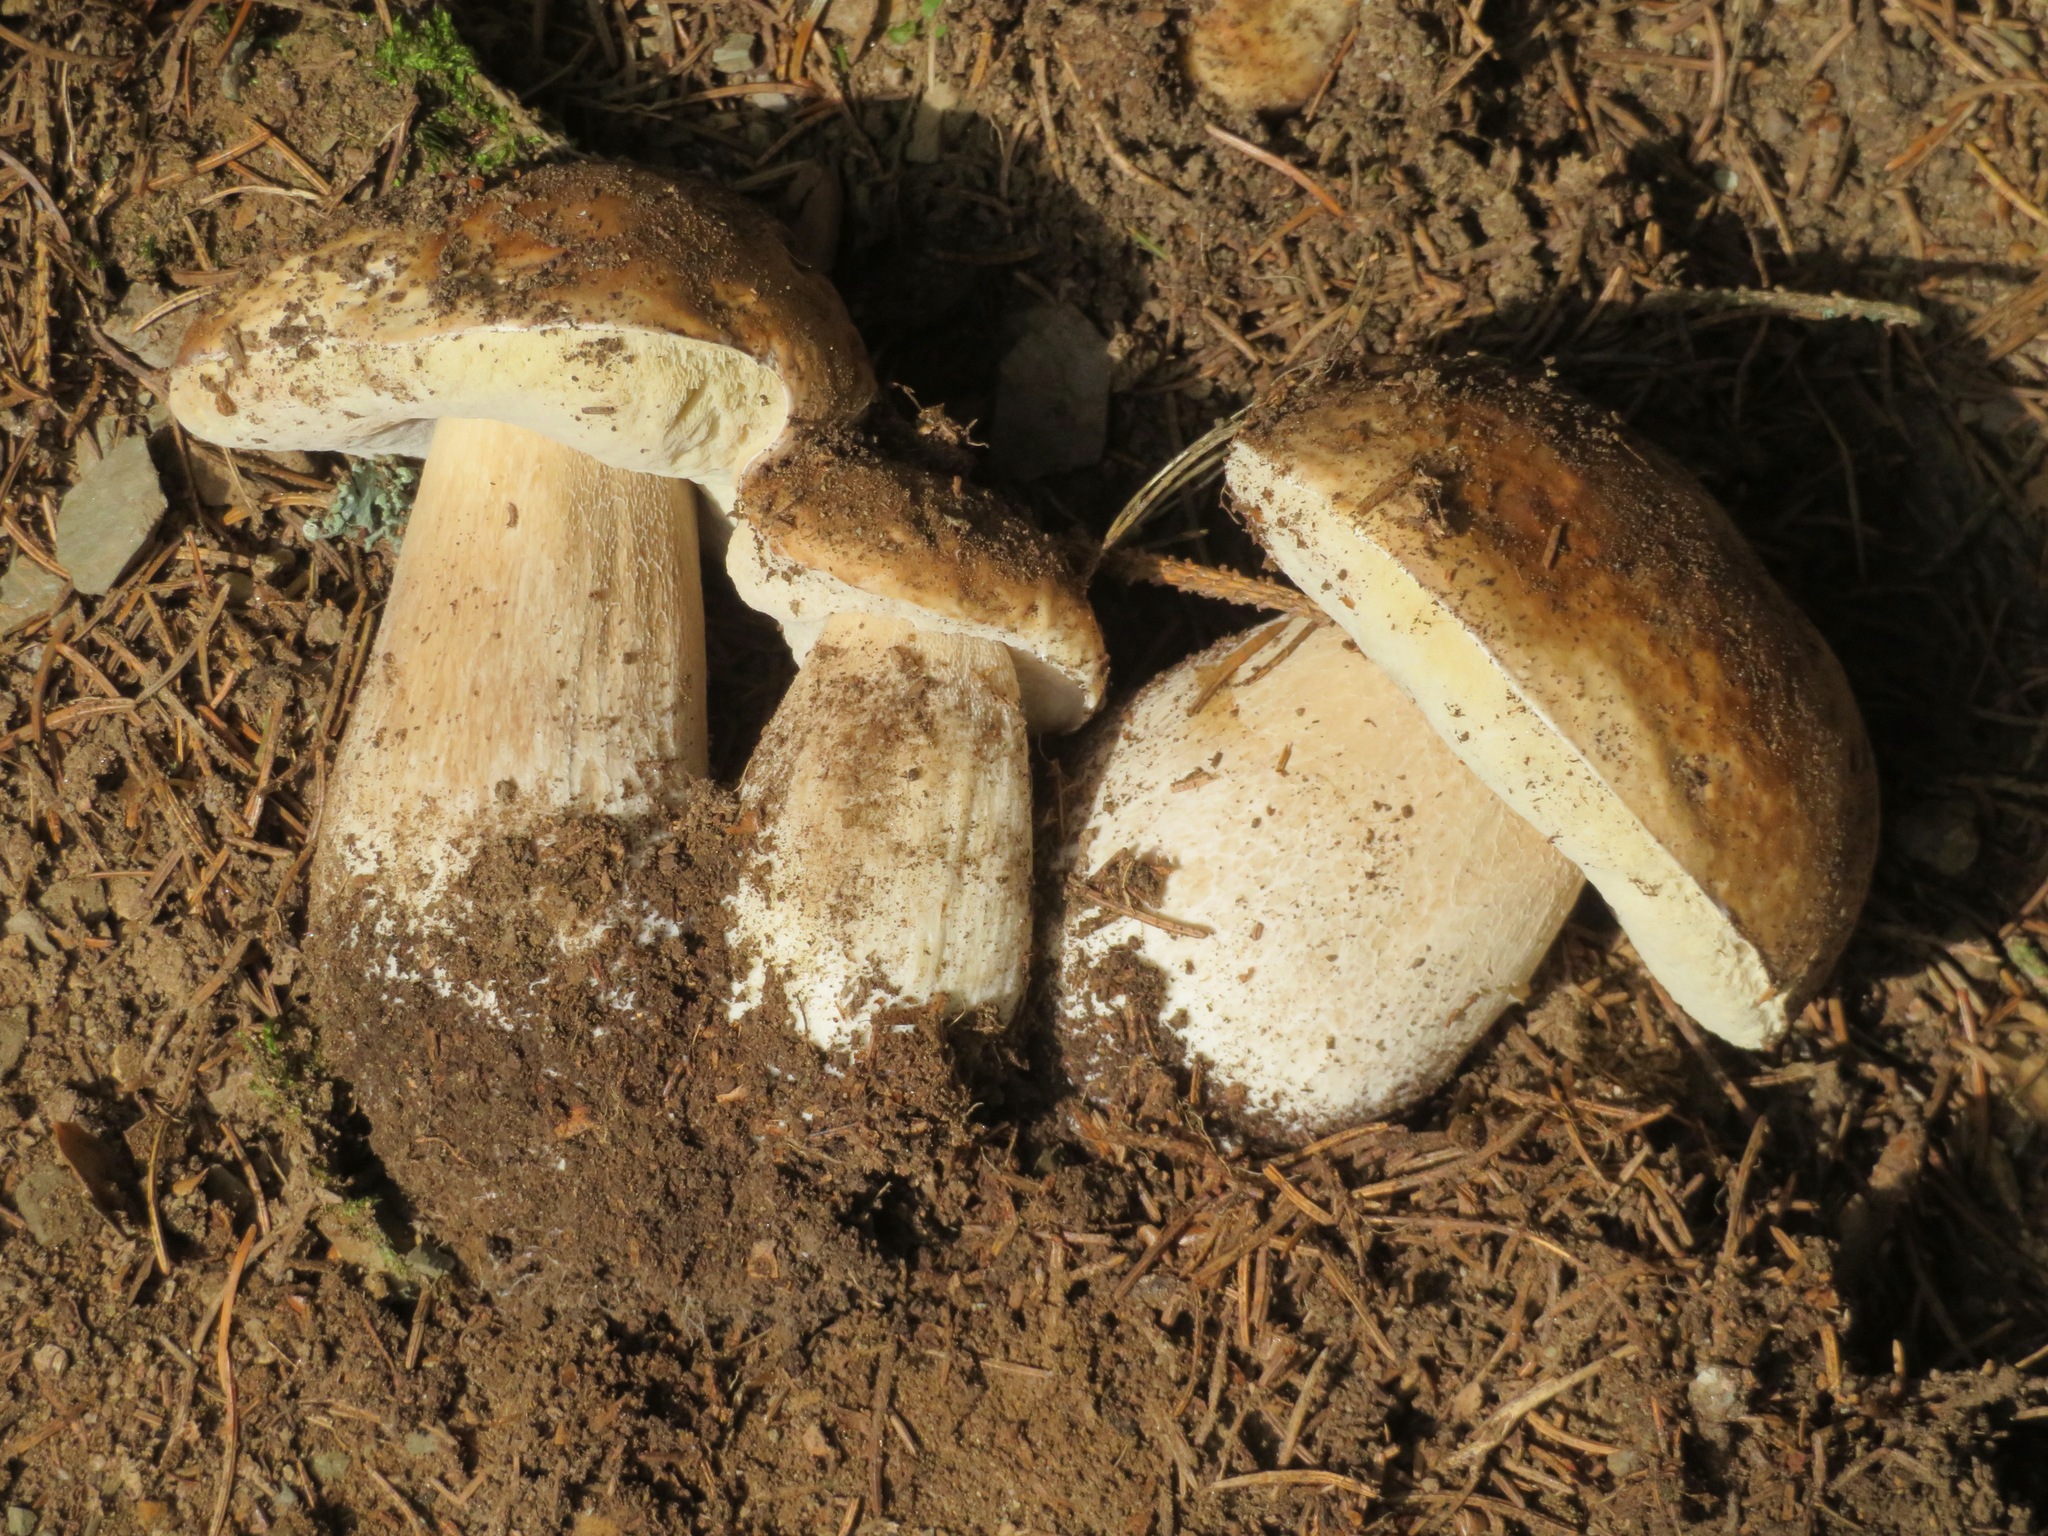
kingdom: Fungi
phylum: Basidiomycota
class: Agaricomycetes
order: Boletales
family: Boletaceae
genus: Boletus
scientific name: Boletus edulis
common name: Cep
